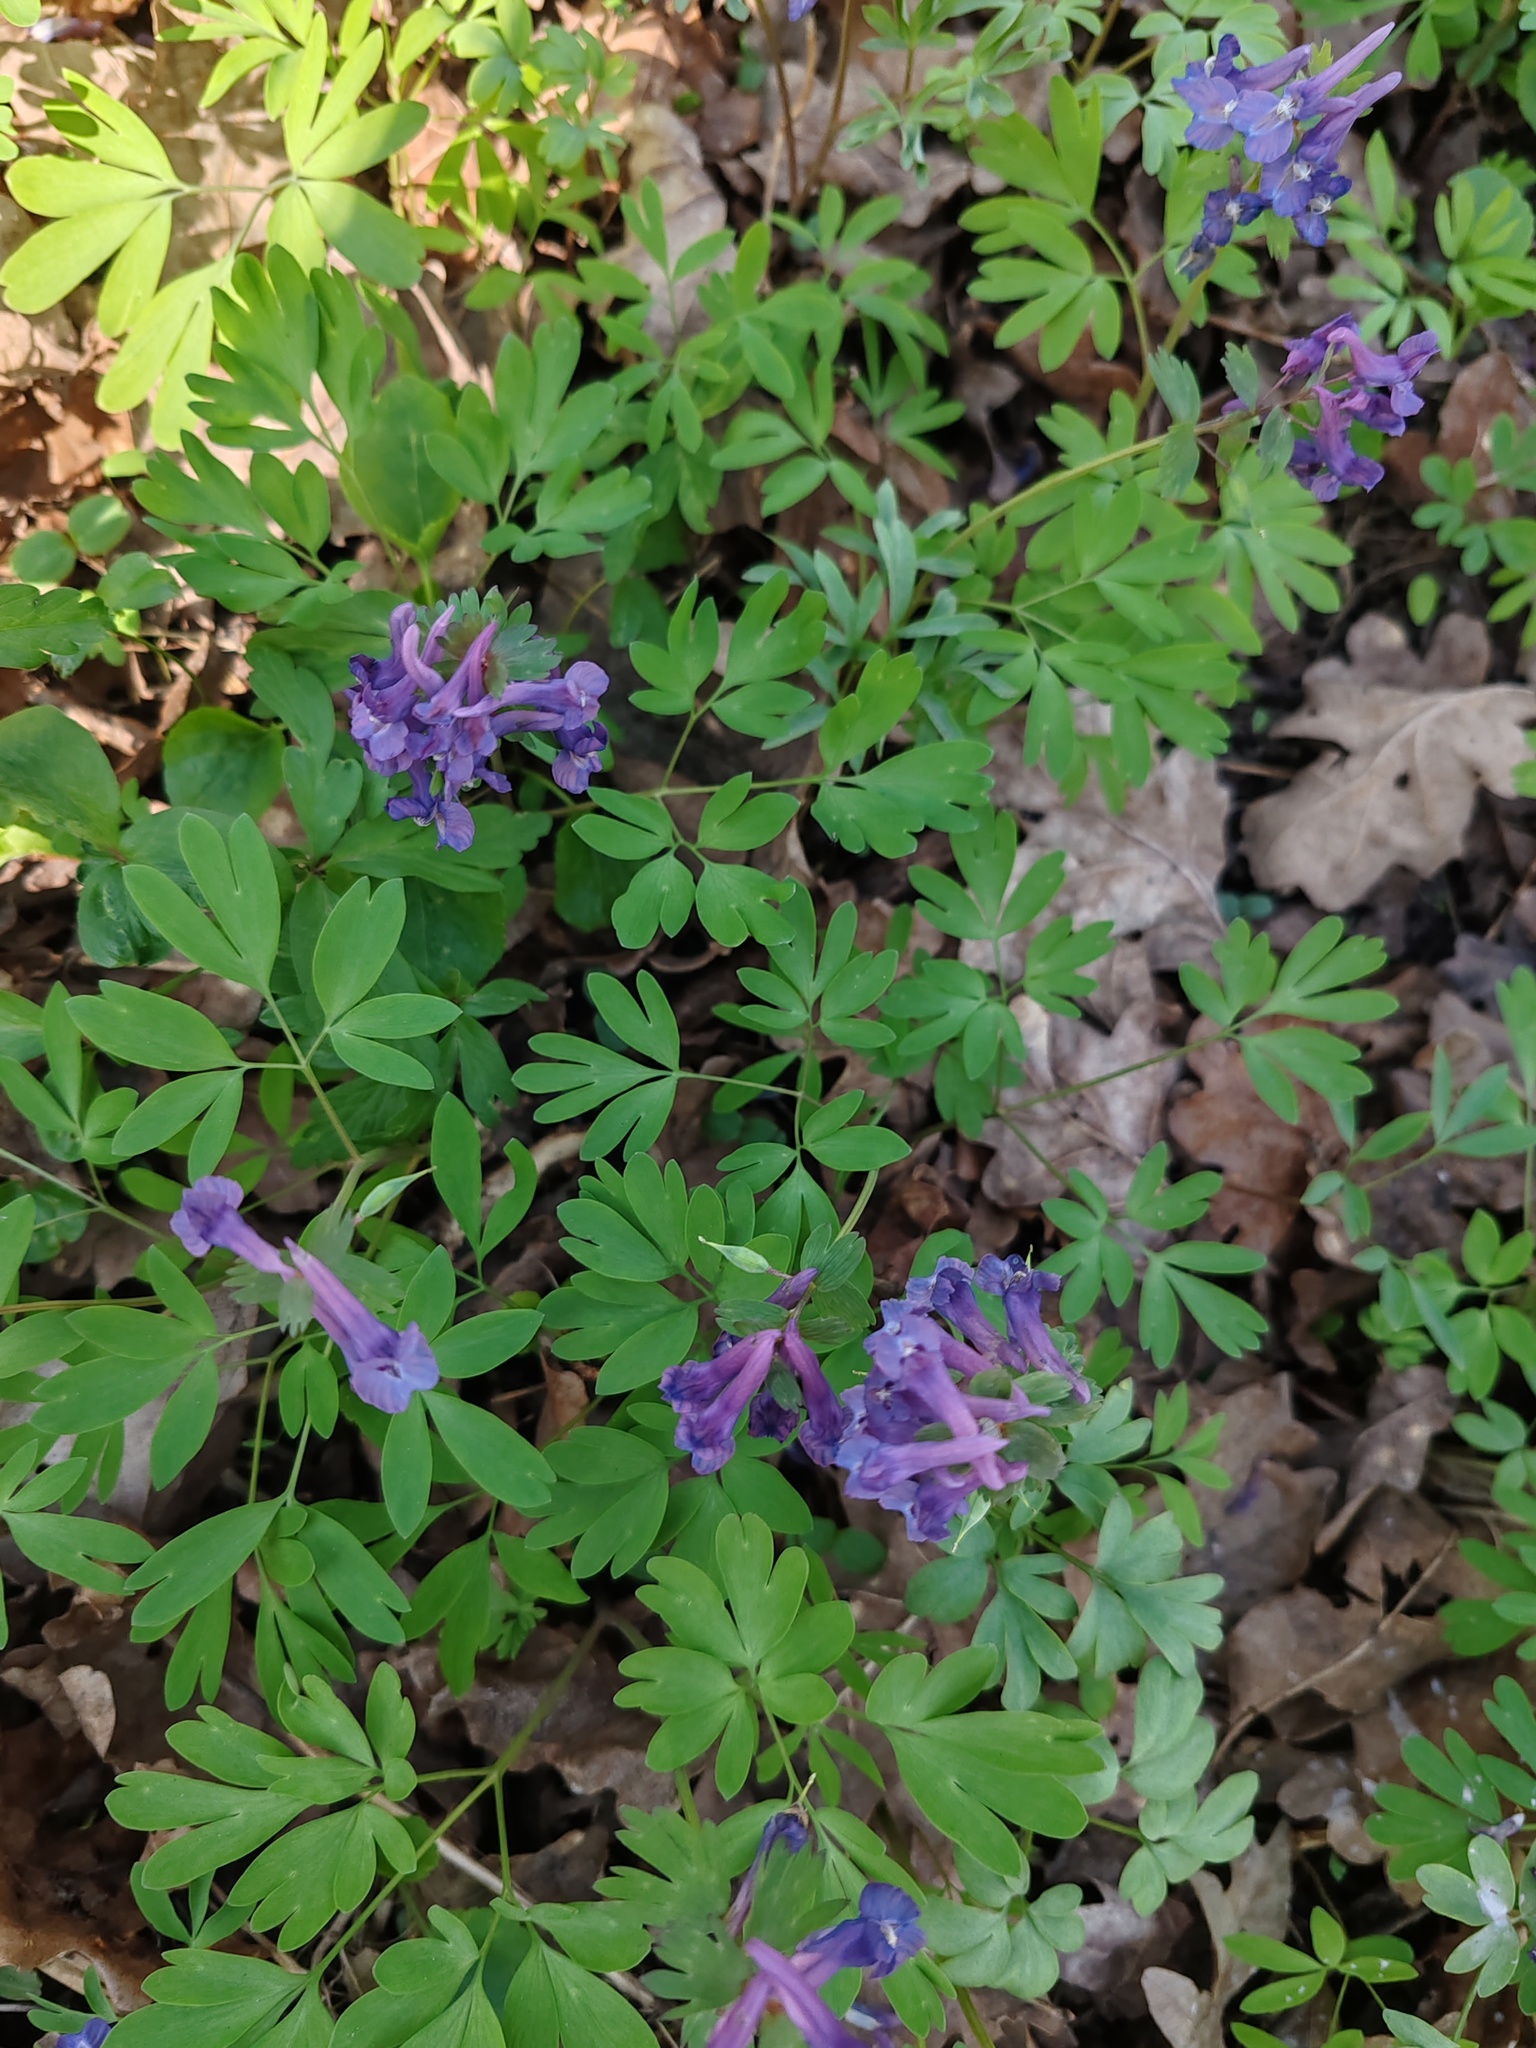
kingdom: Plantae
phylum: Tracheophyta
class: Magnoliopsida
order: Ranunculales
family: Papaveraceae
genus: Corydalis
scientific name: Corydalis solida
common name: Bird-in-a-bush
